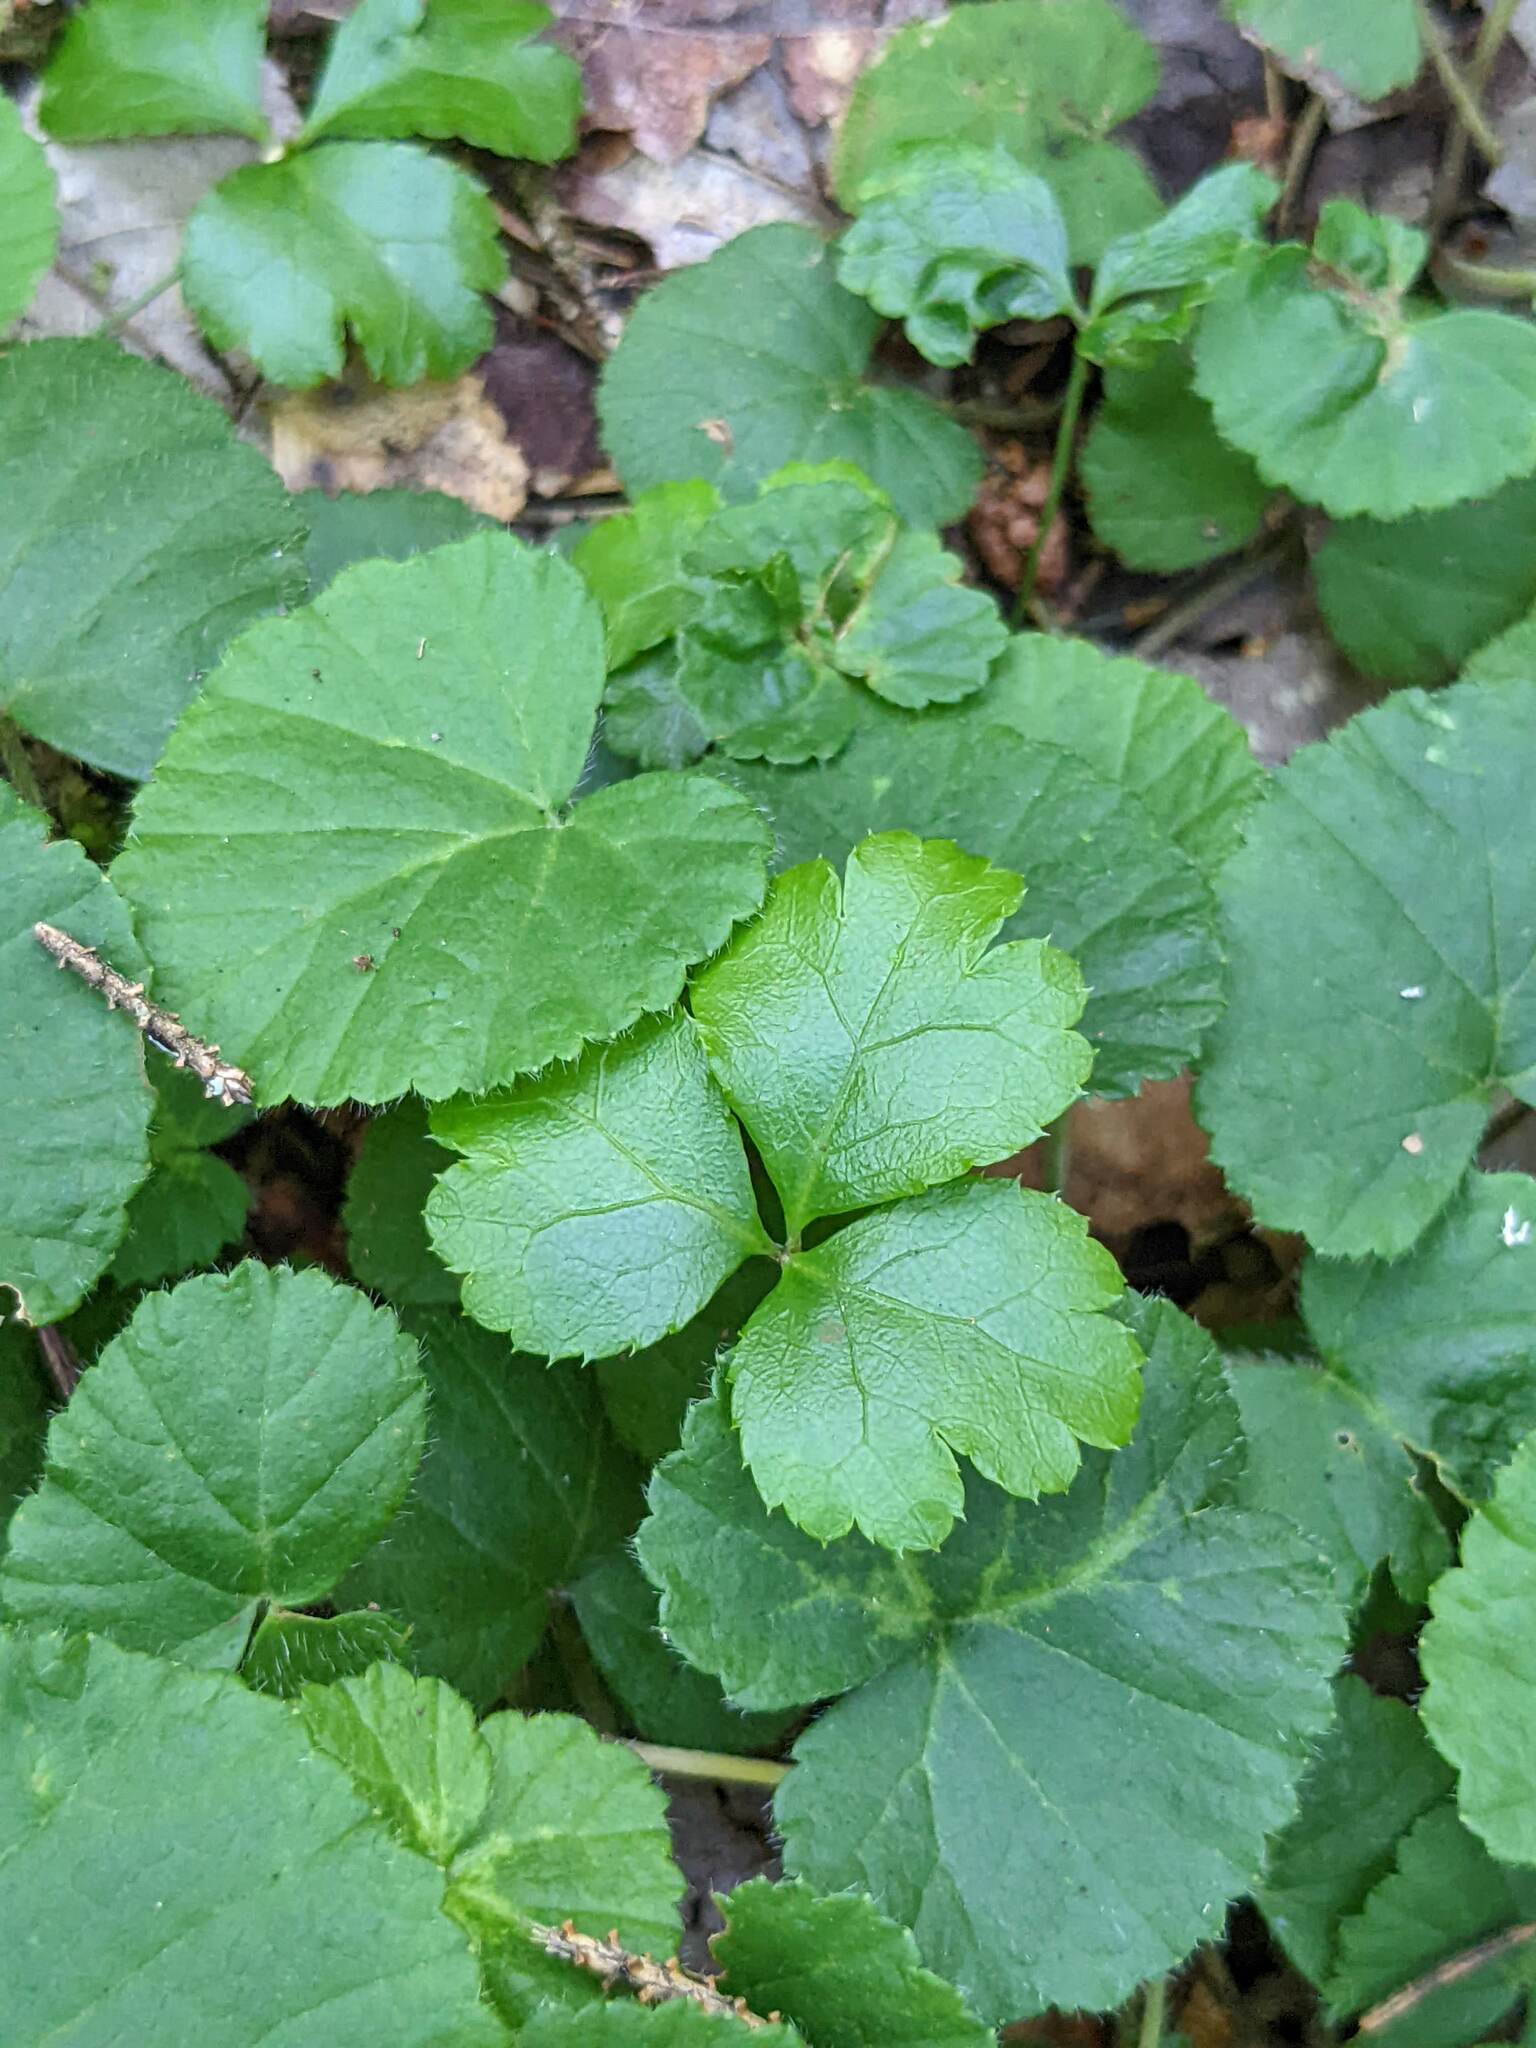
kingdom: Plantae
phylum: Tracheophyta
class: Magnoliopsida
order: Rosales
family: Rosaceae
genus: Dalibarda
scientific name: Dalibarda repens
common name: Dewdrop
